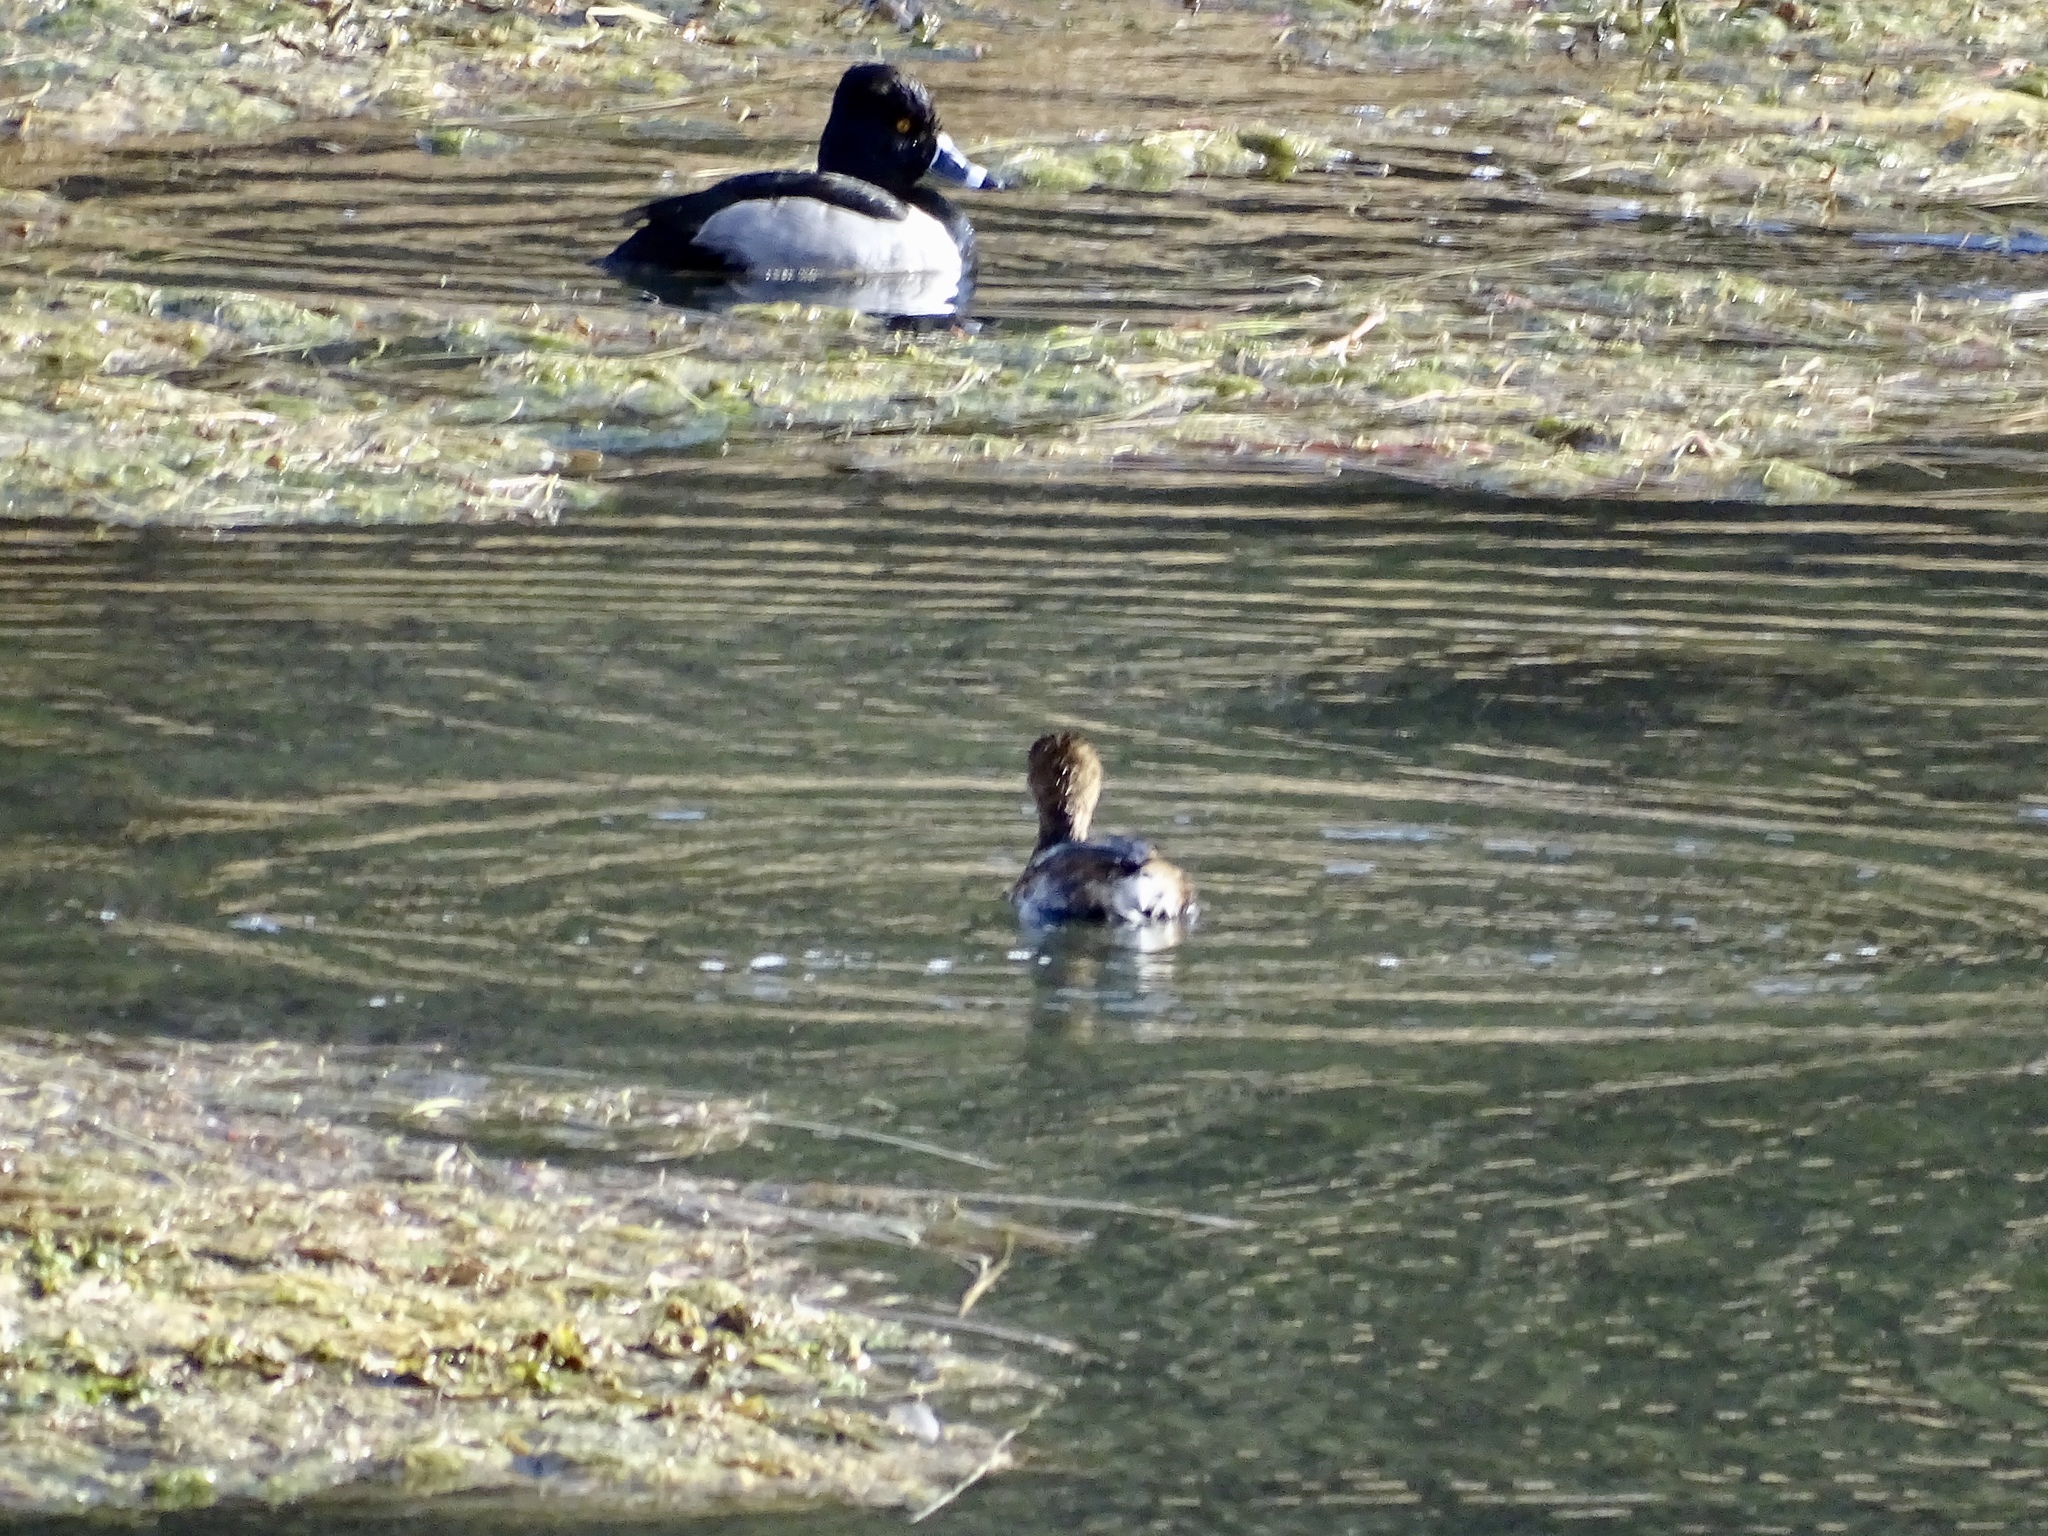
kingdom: Animalia
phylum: Chordata
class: Aves
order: Podicipediformes
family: Podicipedidae
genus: Podilymbus
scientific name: Podilymbus podiceps
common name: Pied-billed grebe
